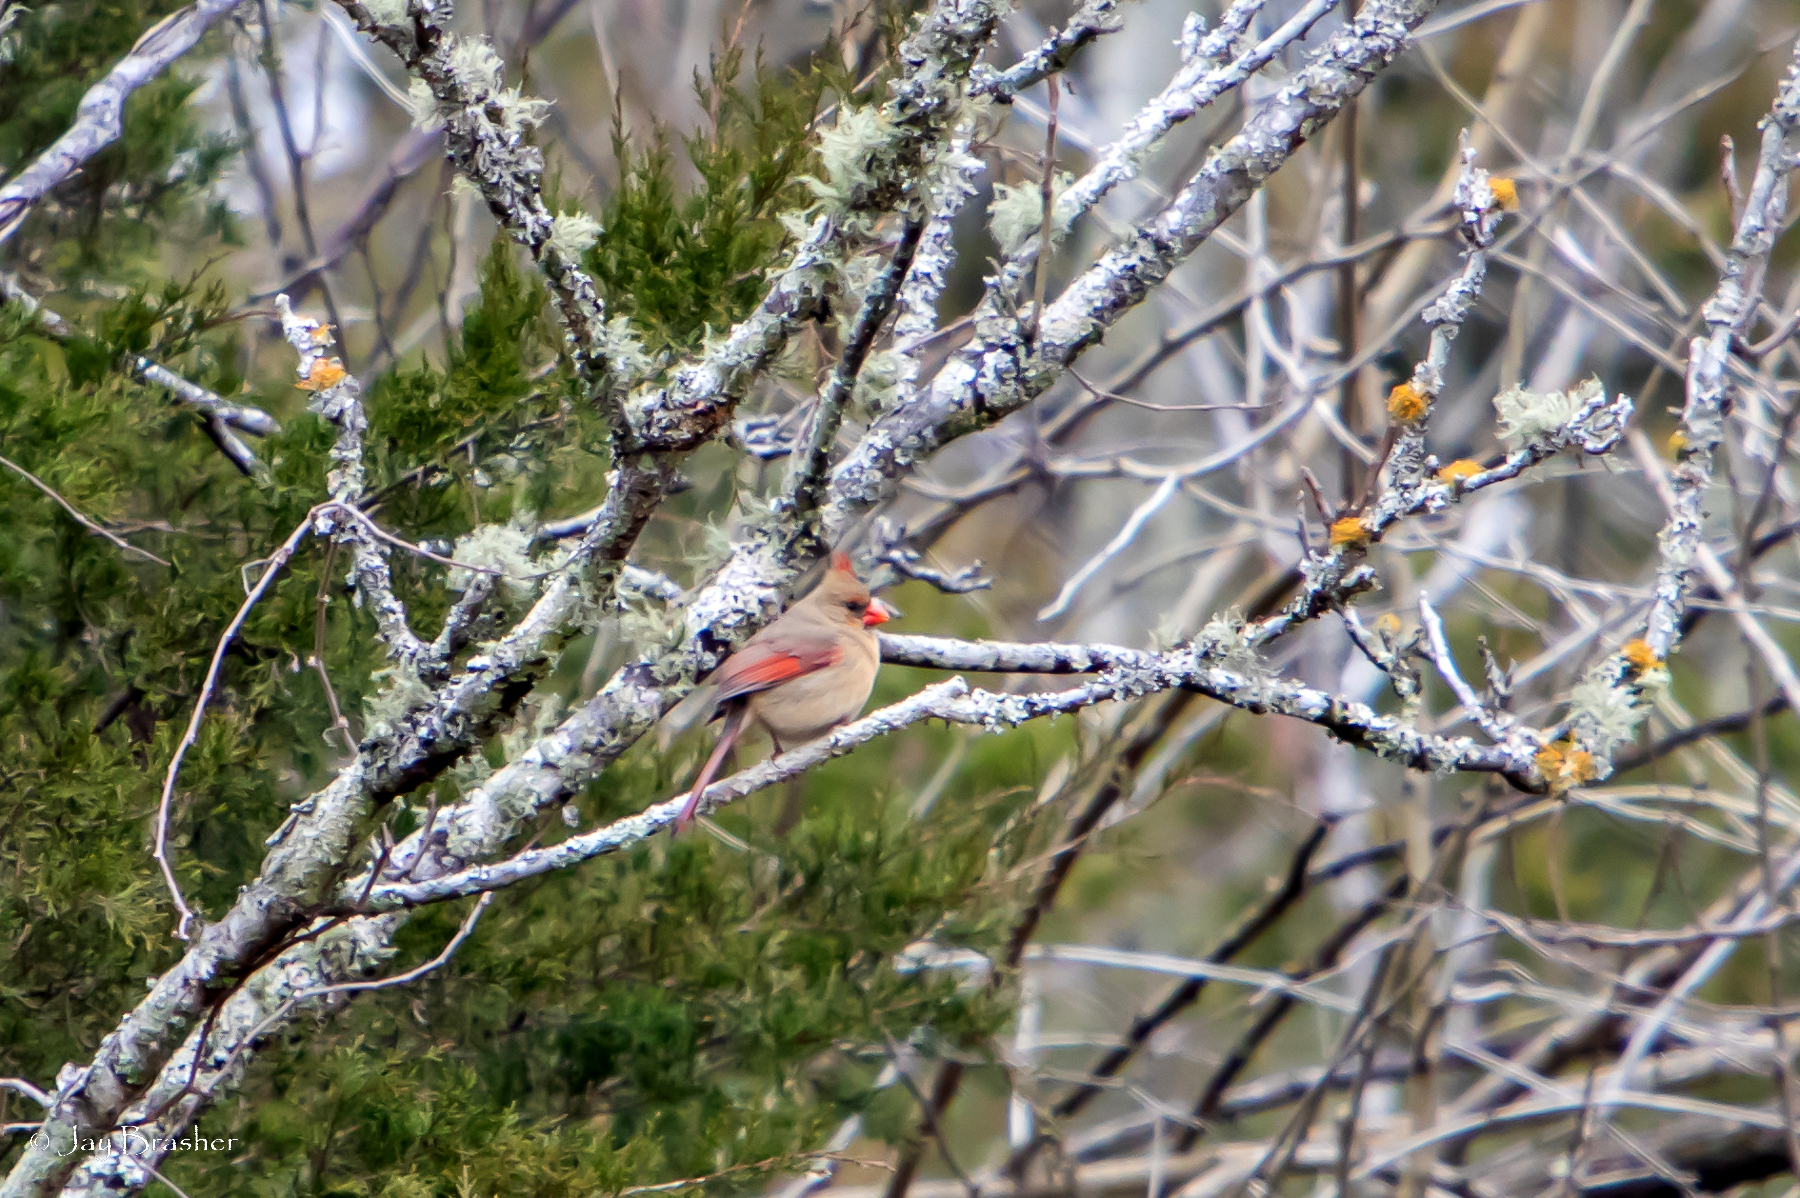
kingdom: Animalia
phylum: Chordata
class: Aves
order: Passeriformes
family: Cardinalidae
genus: Cardinalis
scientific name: Cardinalis cardinalis
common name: Northern cardinal
